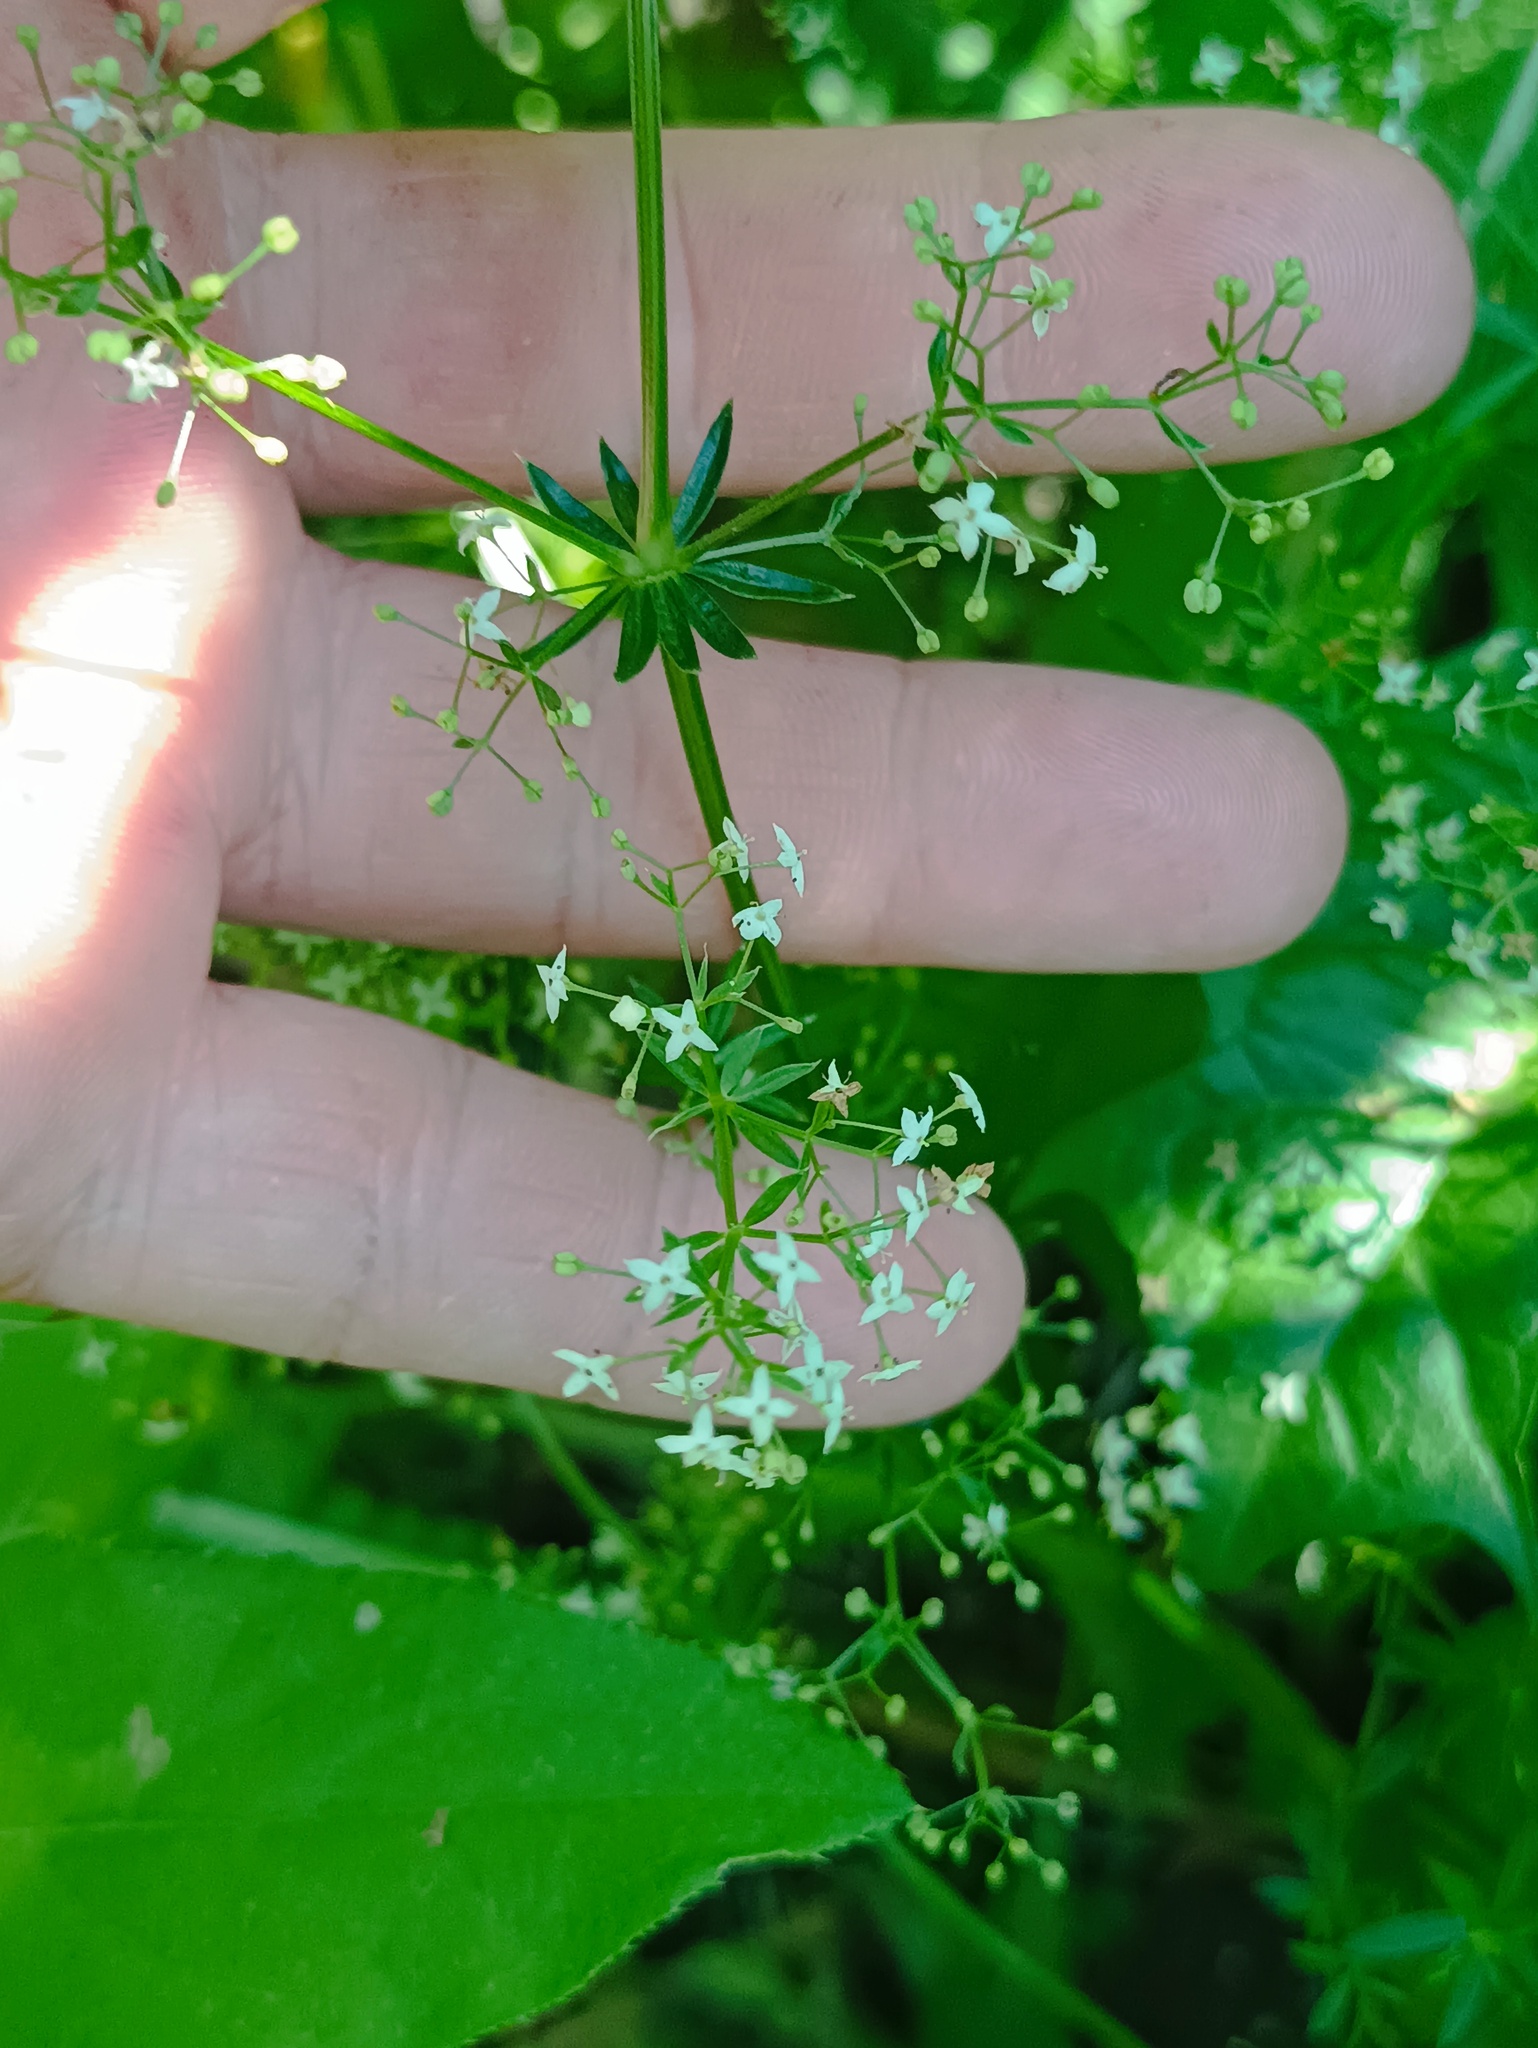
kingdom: Plantae
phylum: Tracheophyta
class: Magnoliopsida
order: Gentianales
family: Rubiaceae
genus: Galium
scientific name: Galium mollugo
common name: Hedge bedstraw
